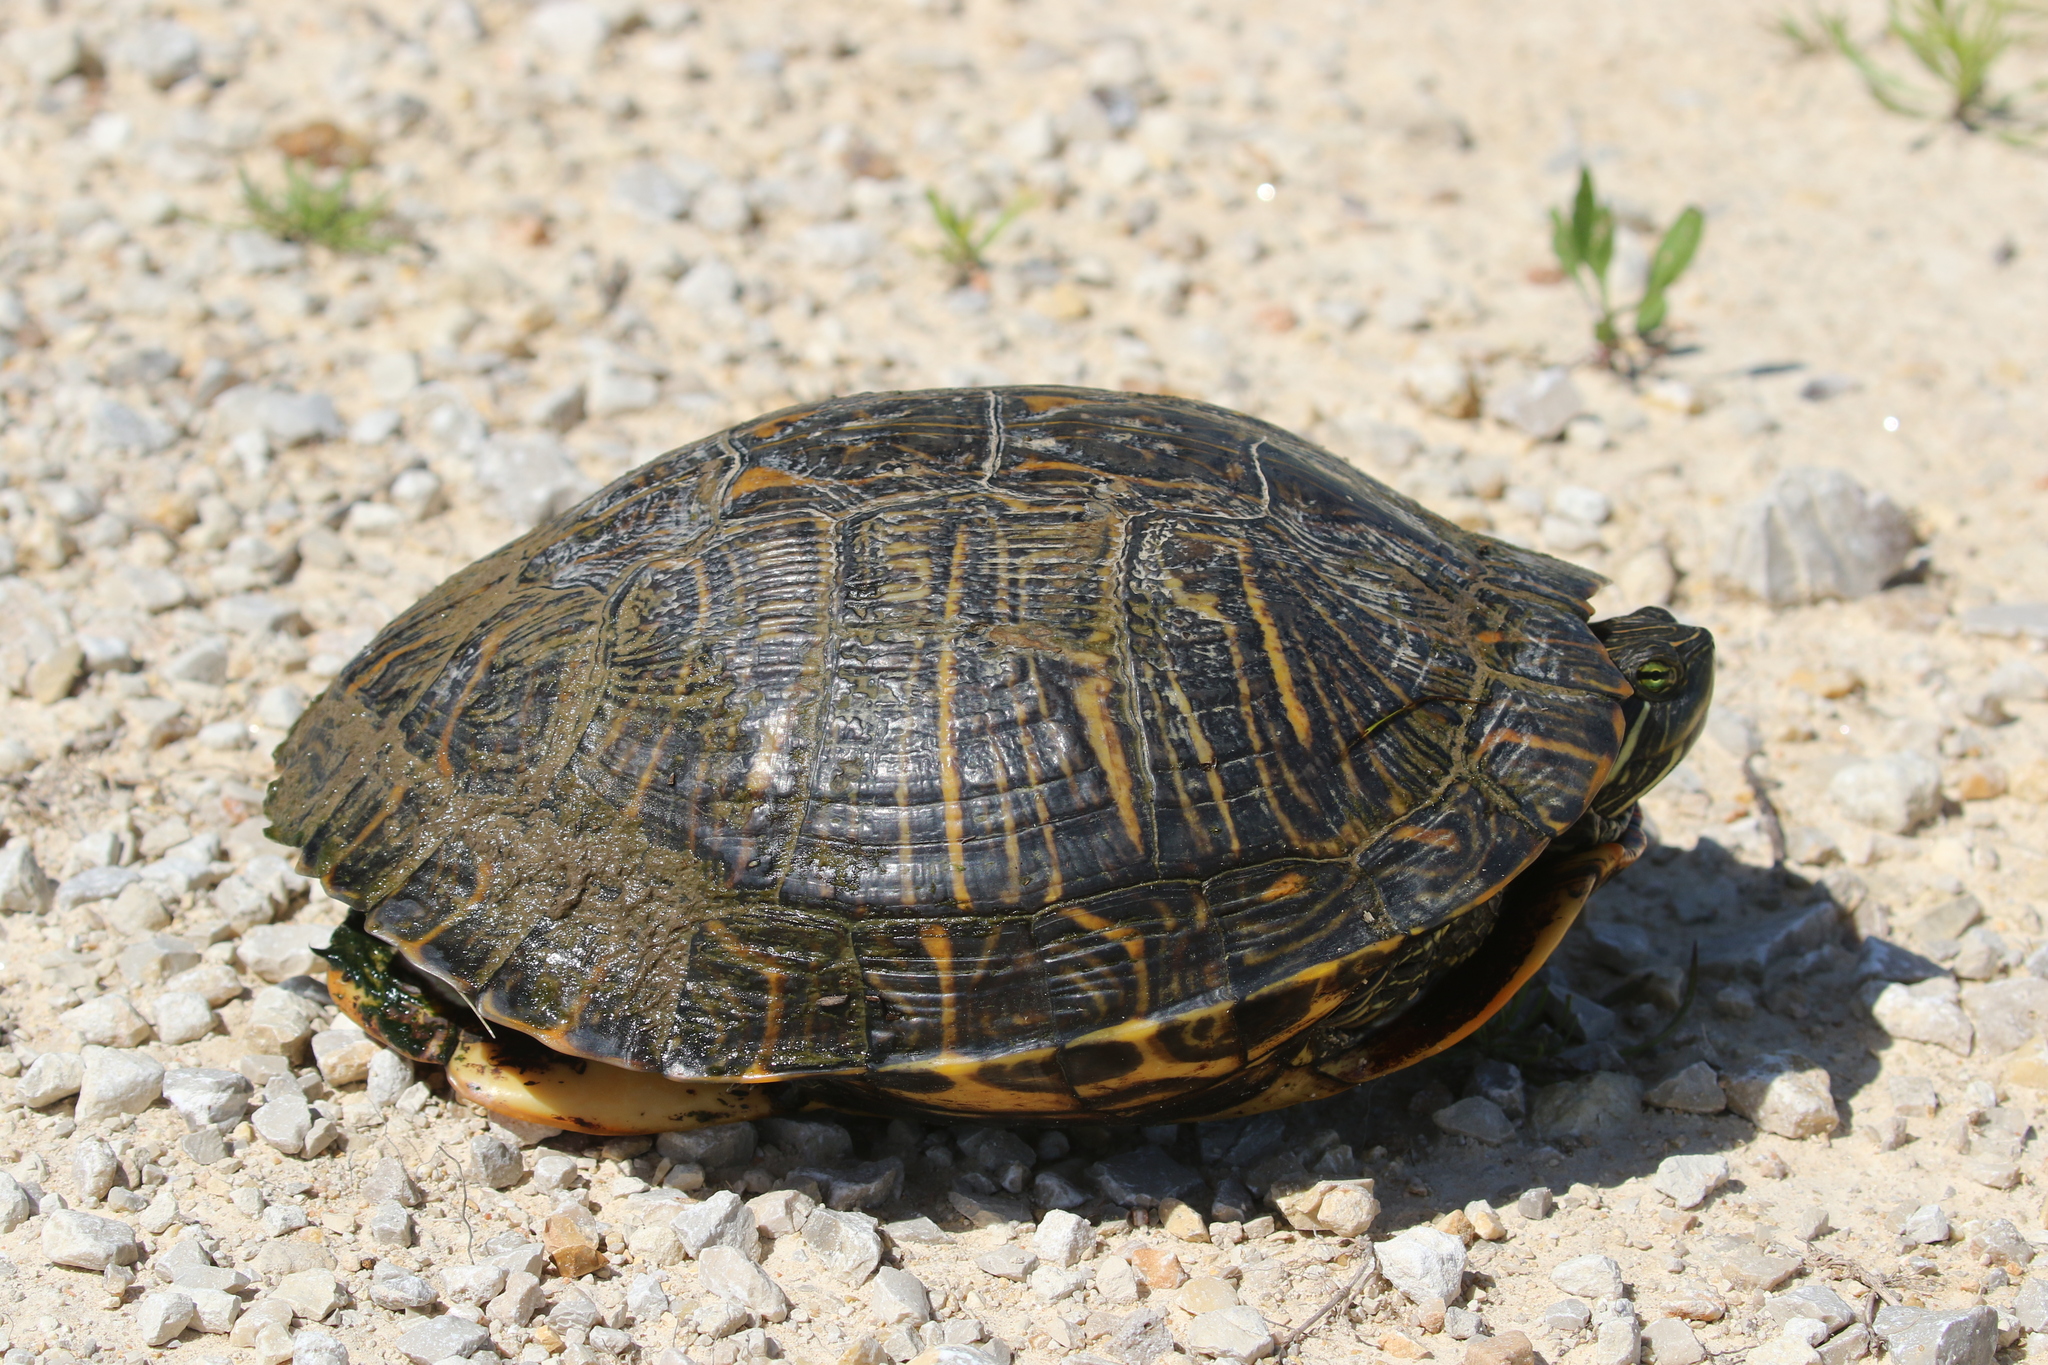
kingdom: Animalia
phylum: Chordata
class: Testudines
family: Emydidae
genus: Trachemys
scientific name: Trachemys scripta
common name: Slider
